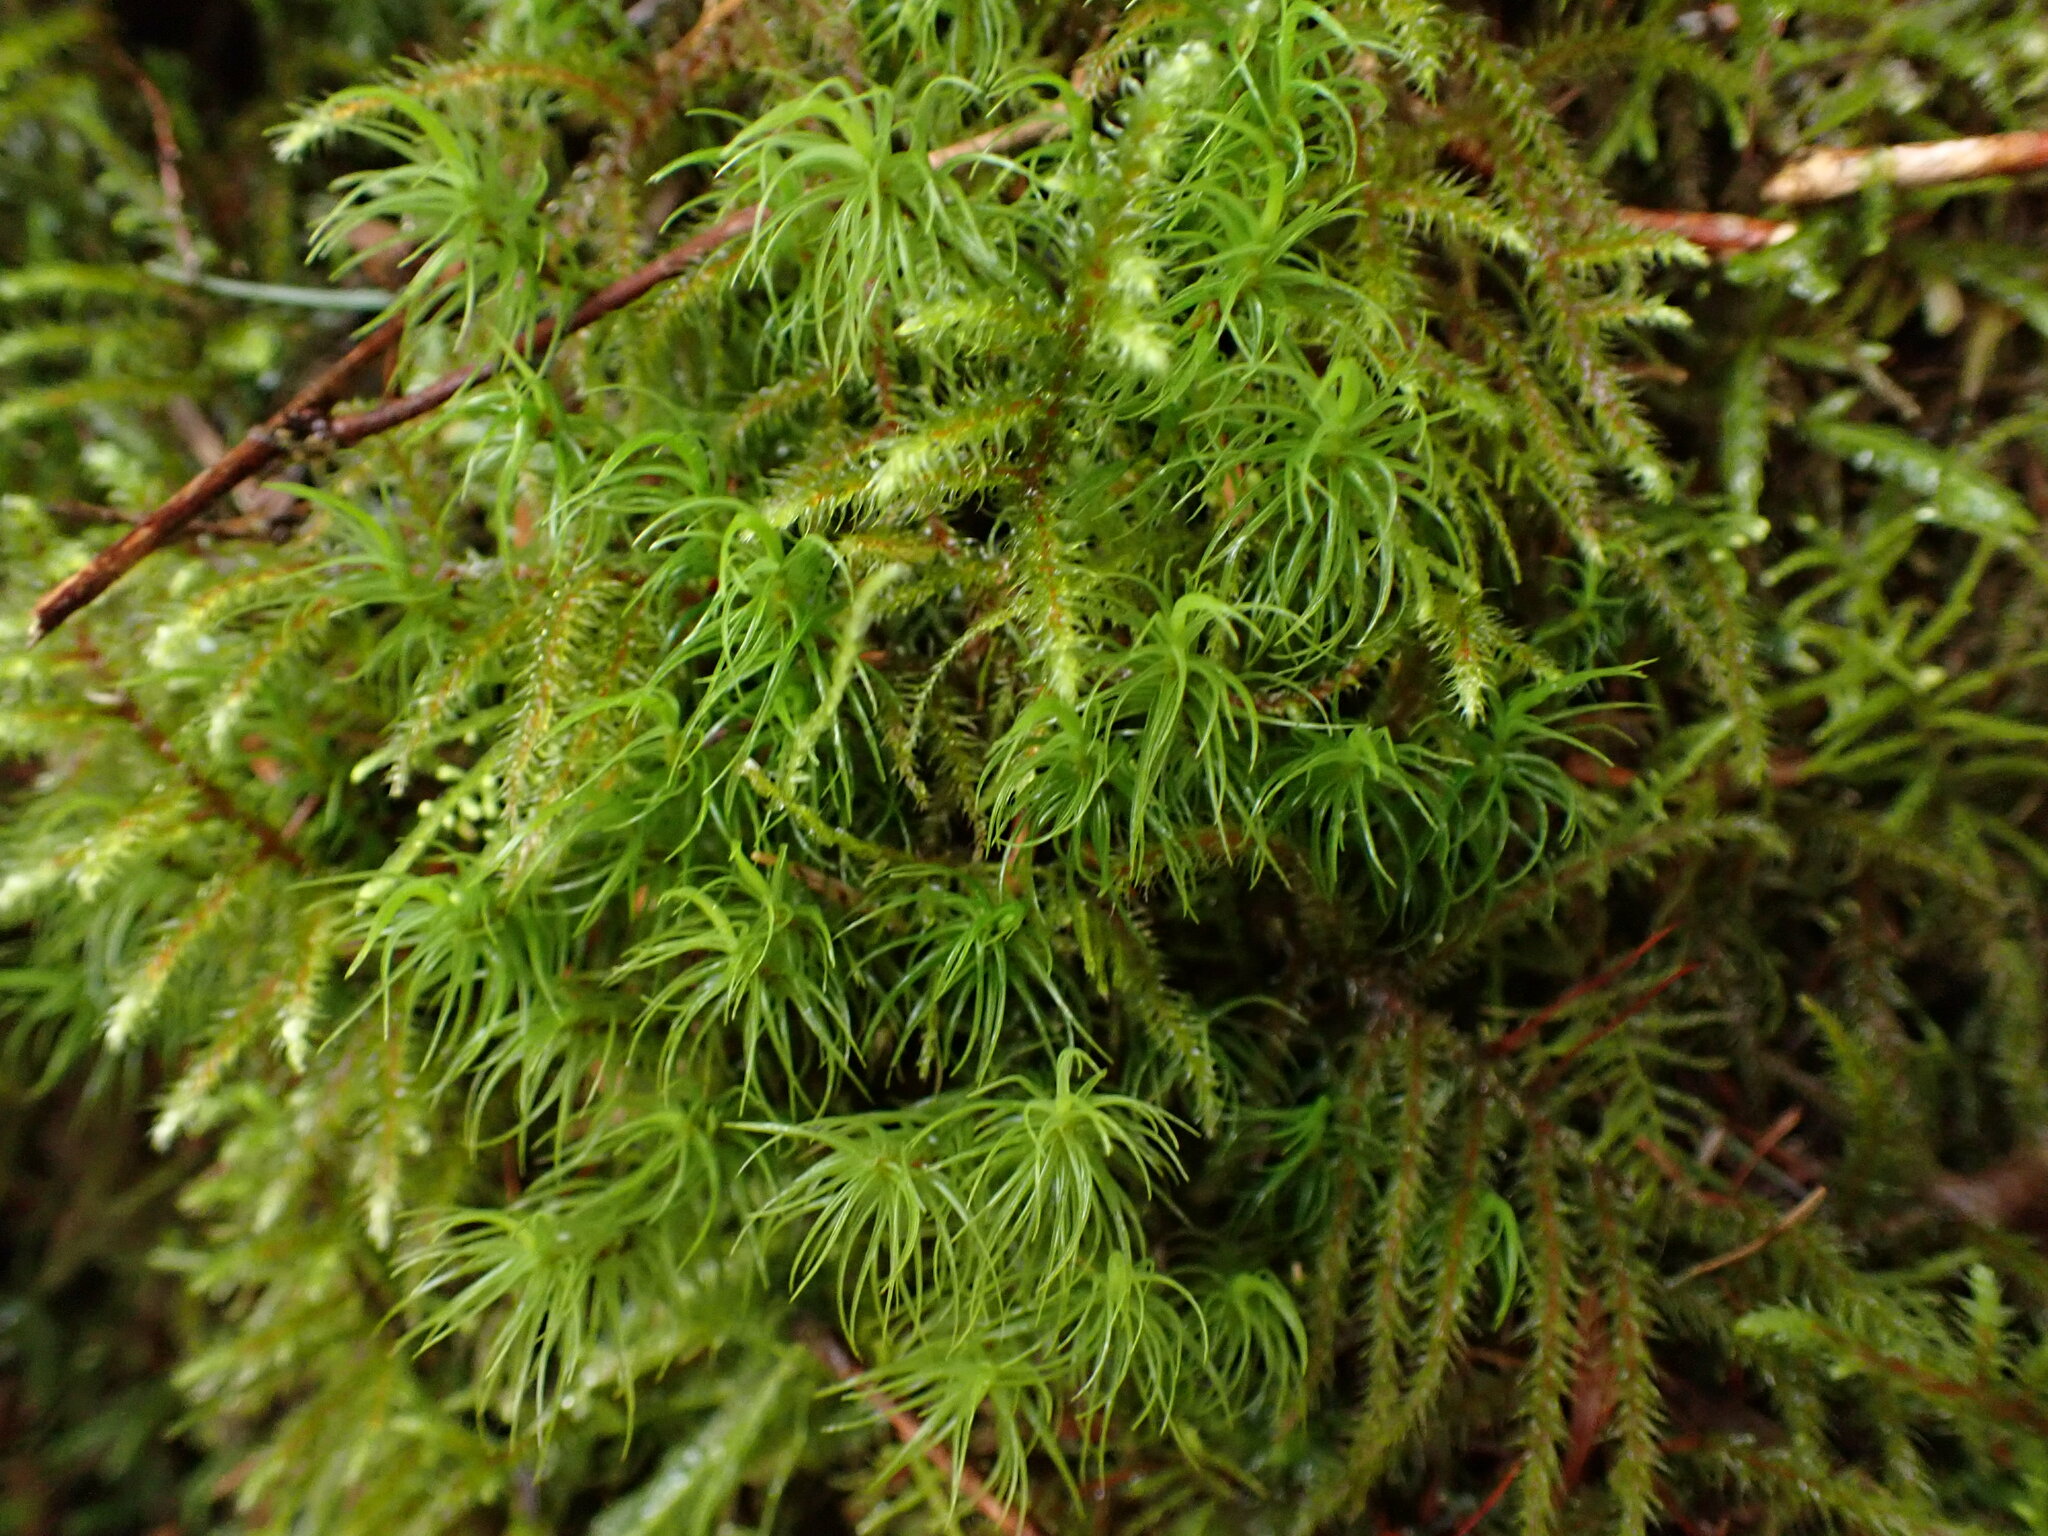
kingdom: Plantae
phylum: Bryophyta
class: Bryopsida
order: Hypnales
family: Hylocomiaceae
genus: Rhytidiadelphus
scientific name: Rhytidiadelphus loreus
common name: Lanky moss
